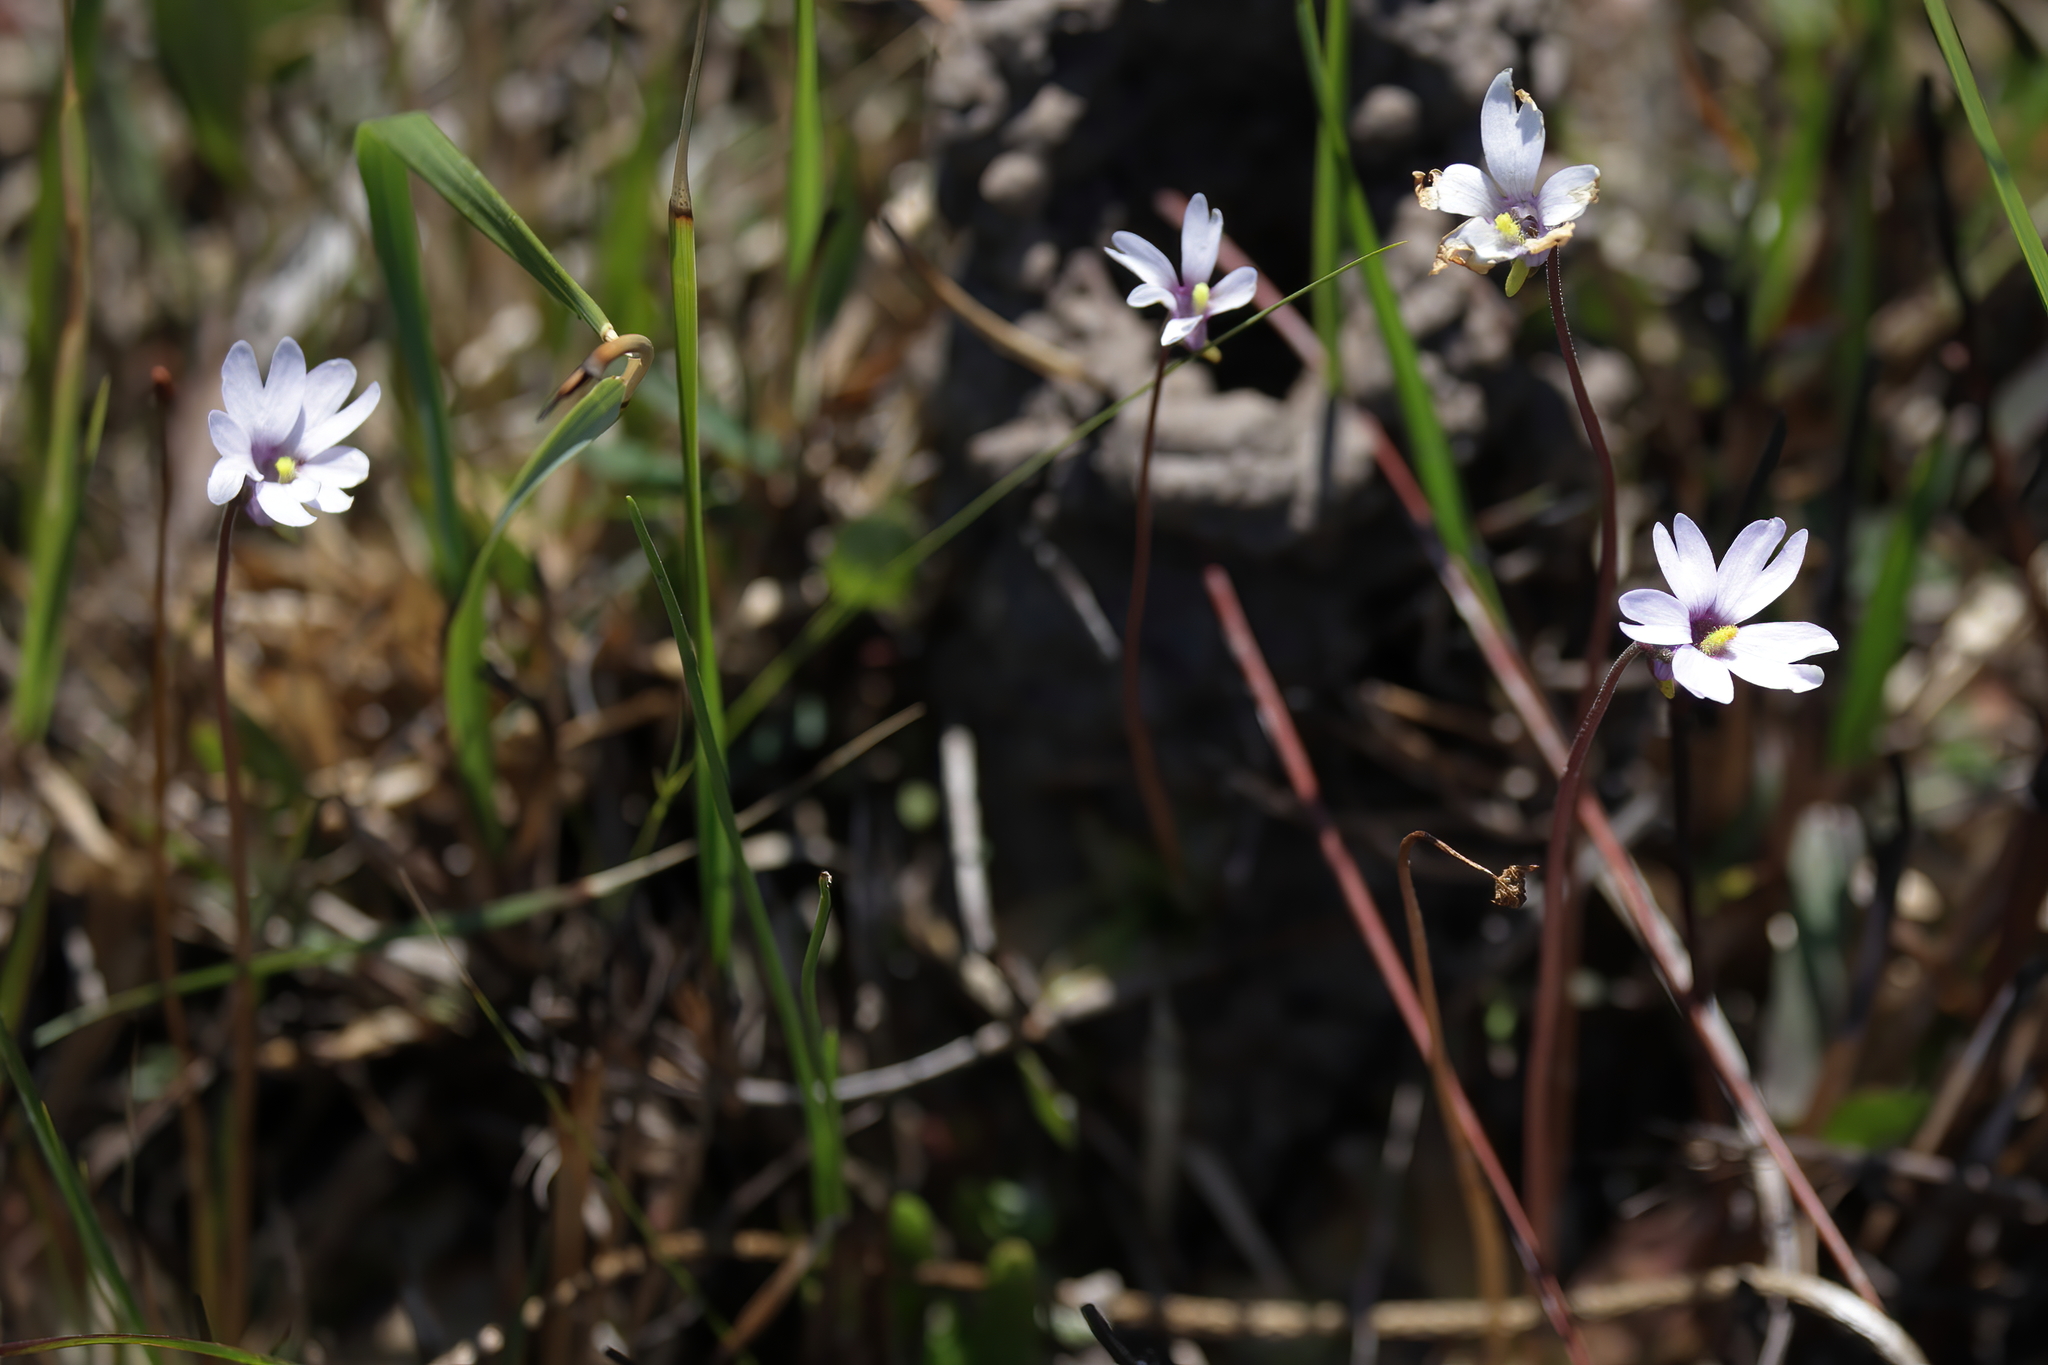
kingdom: Plantae
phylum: Tracheophyta
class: Magnoliopsida
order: Lamiales
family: Lentibulariaceae
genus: Pinguicula
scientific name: Pinguicula planifolia
